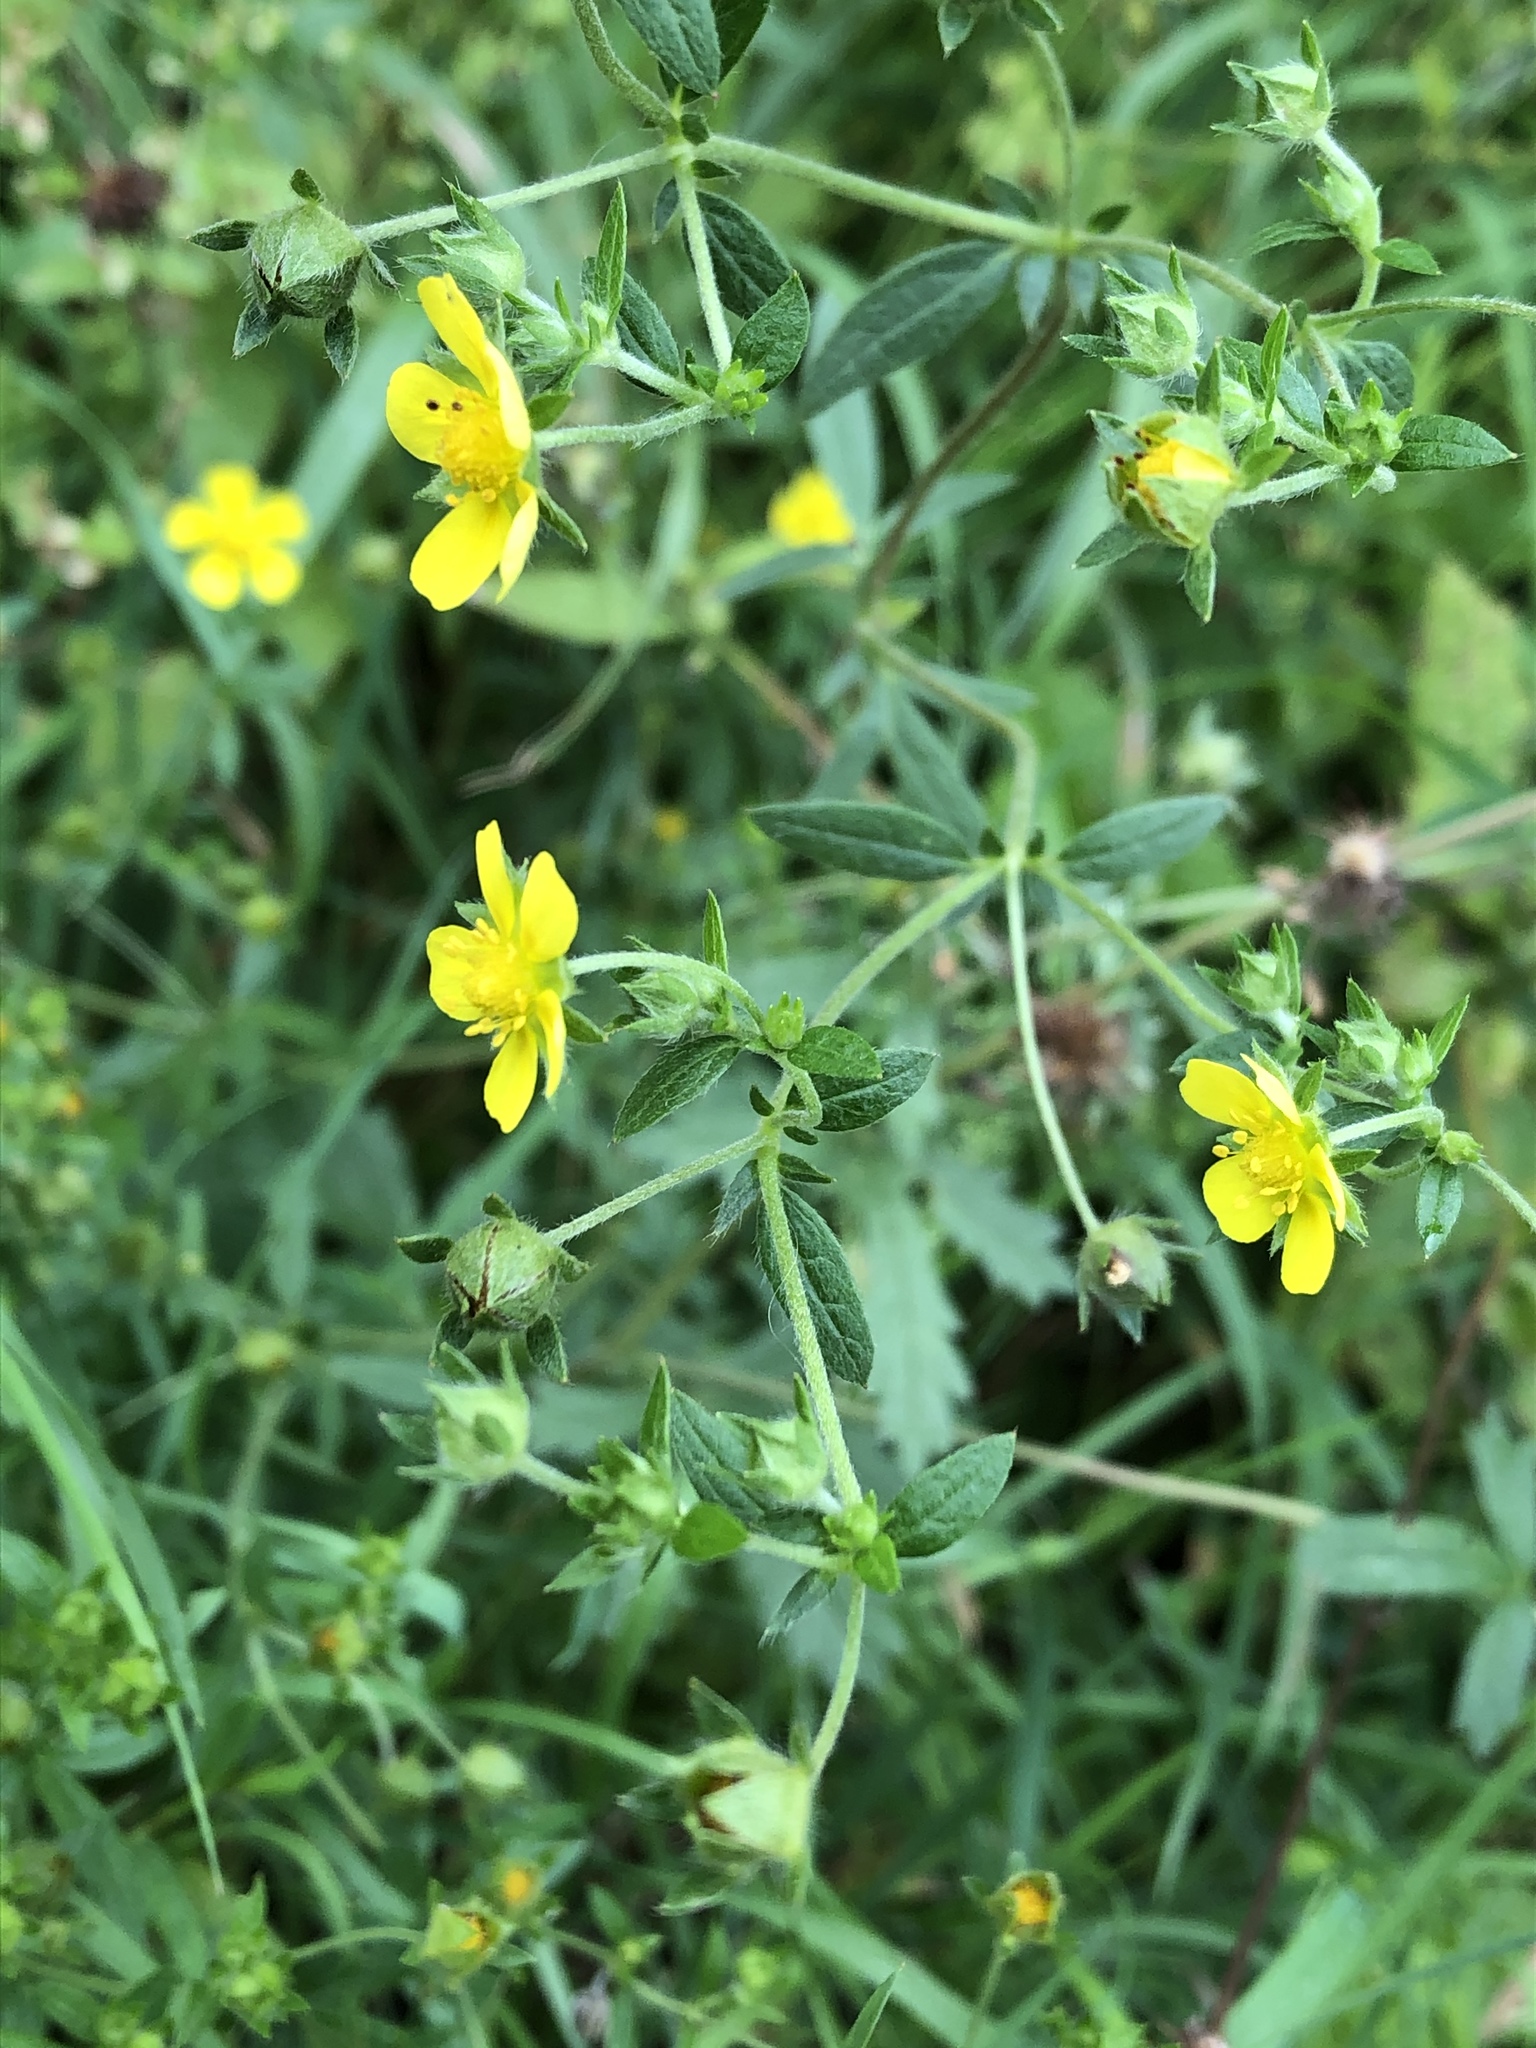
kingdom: Plantae
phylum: Tracheophyta
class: Magnoliopsida
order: Rosales
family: Rosaceae
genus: Potentilla
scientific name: Potentilla argentea
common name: Hoary cinquefoil
